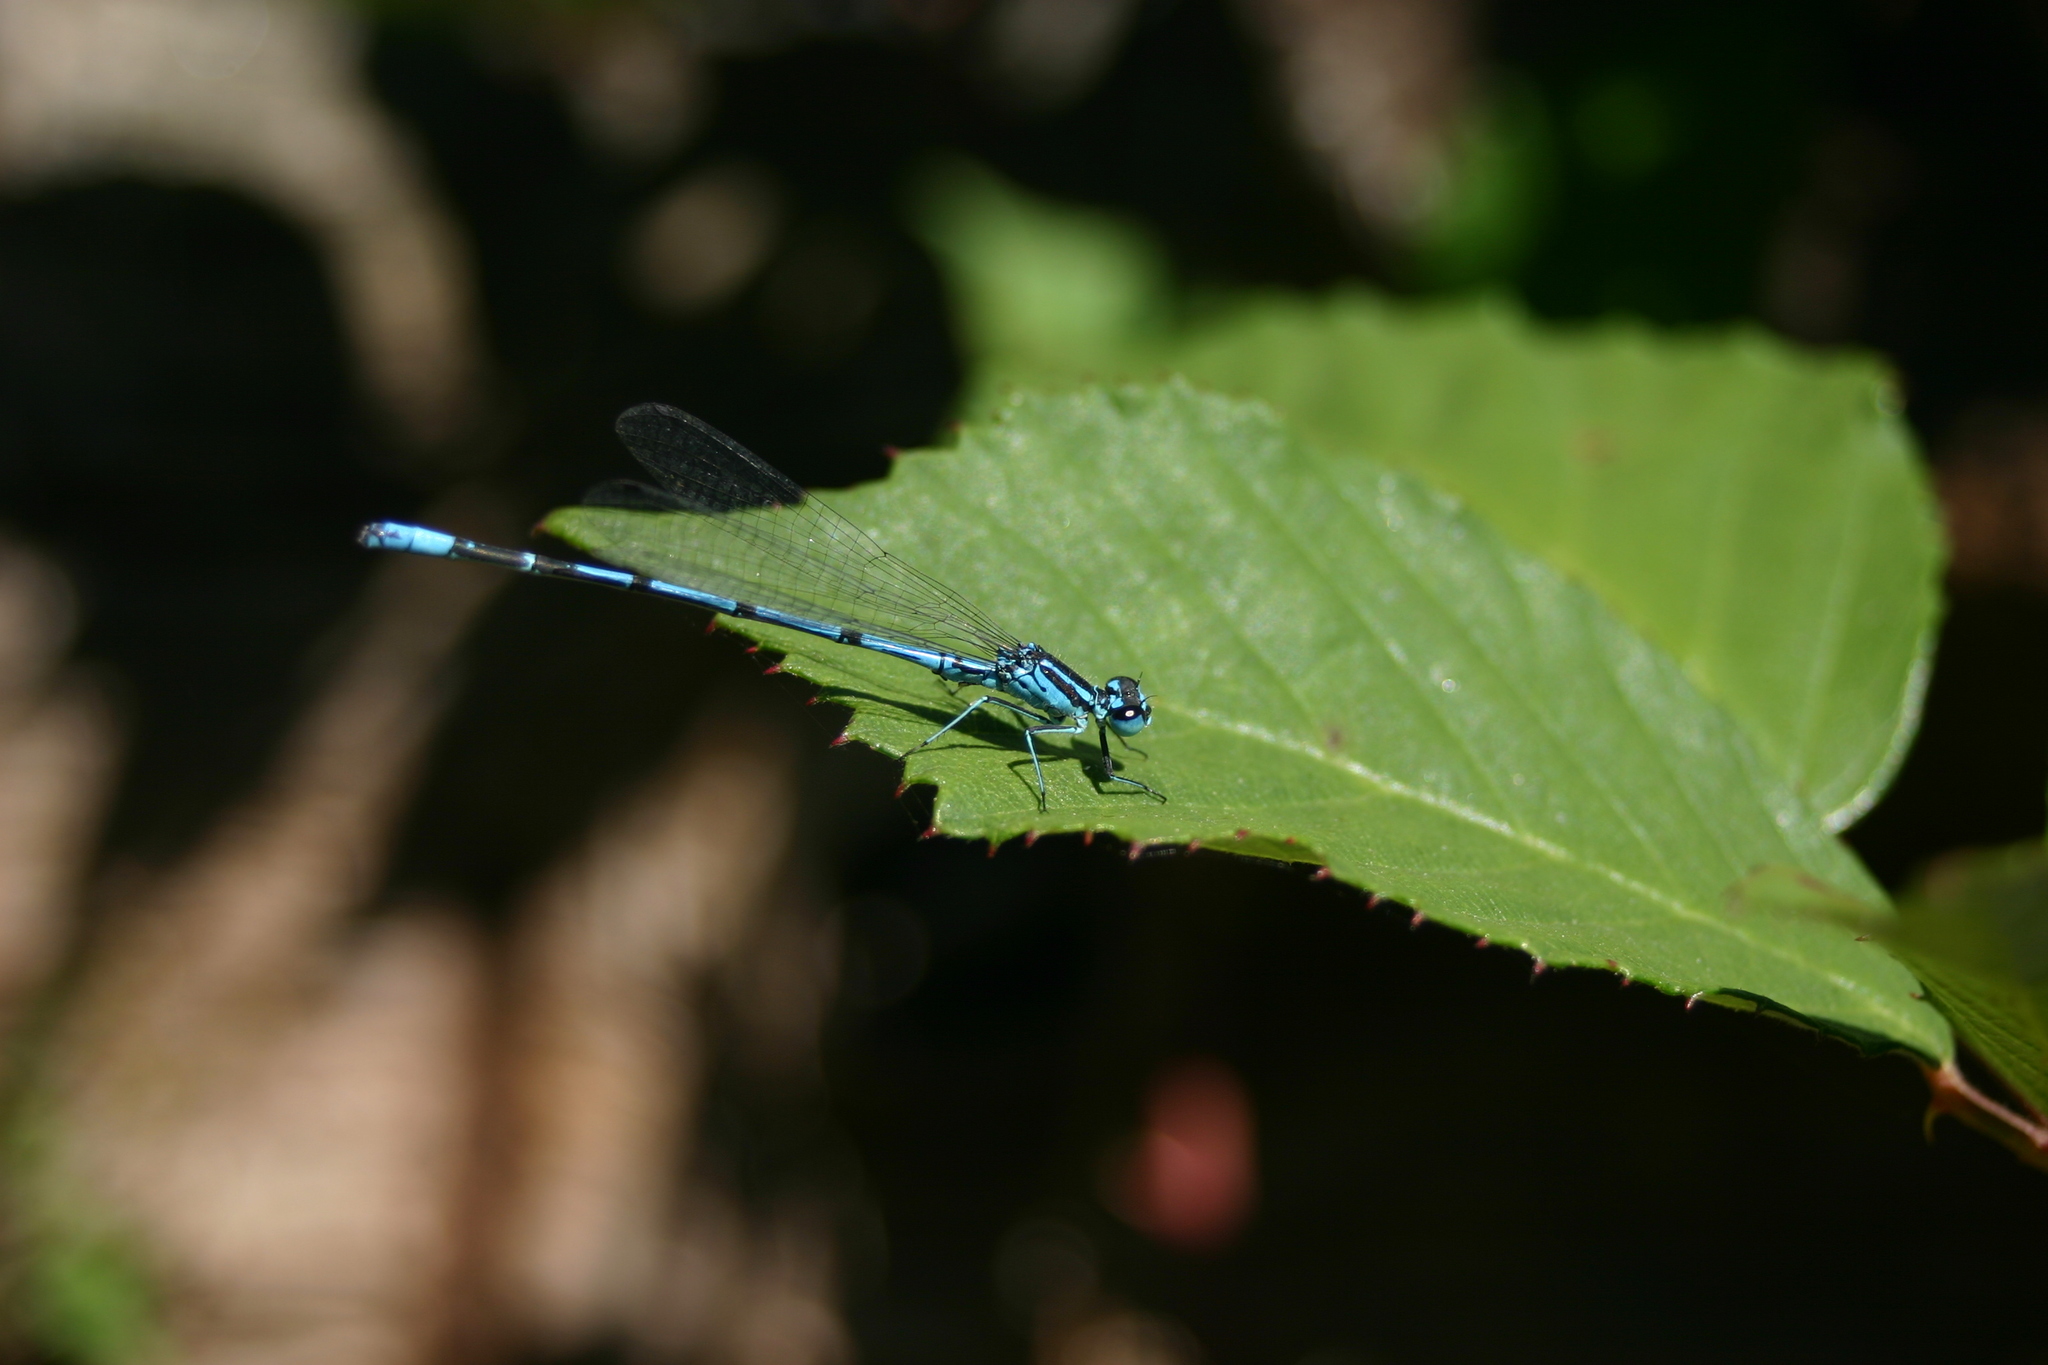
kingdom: Animalia
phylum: Arthropoda
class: Insecta
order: Odonata
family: Coenagrionidae
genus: Coenagrion
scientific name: Coenagrion puella
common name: Azure damselfly
